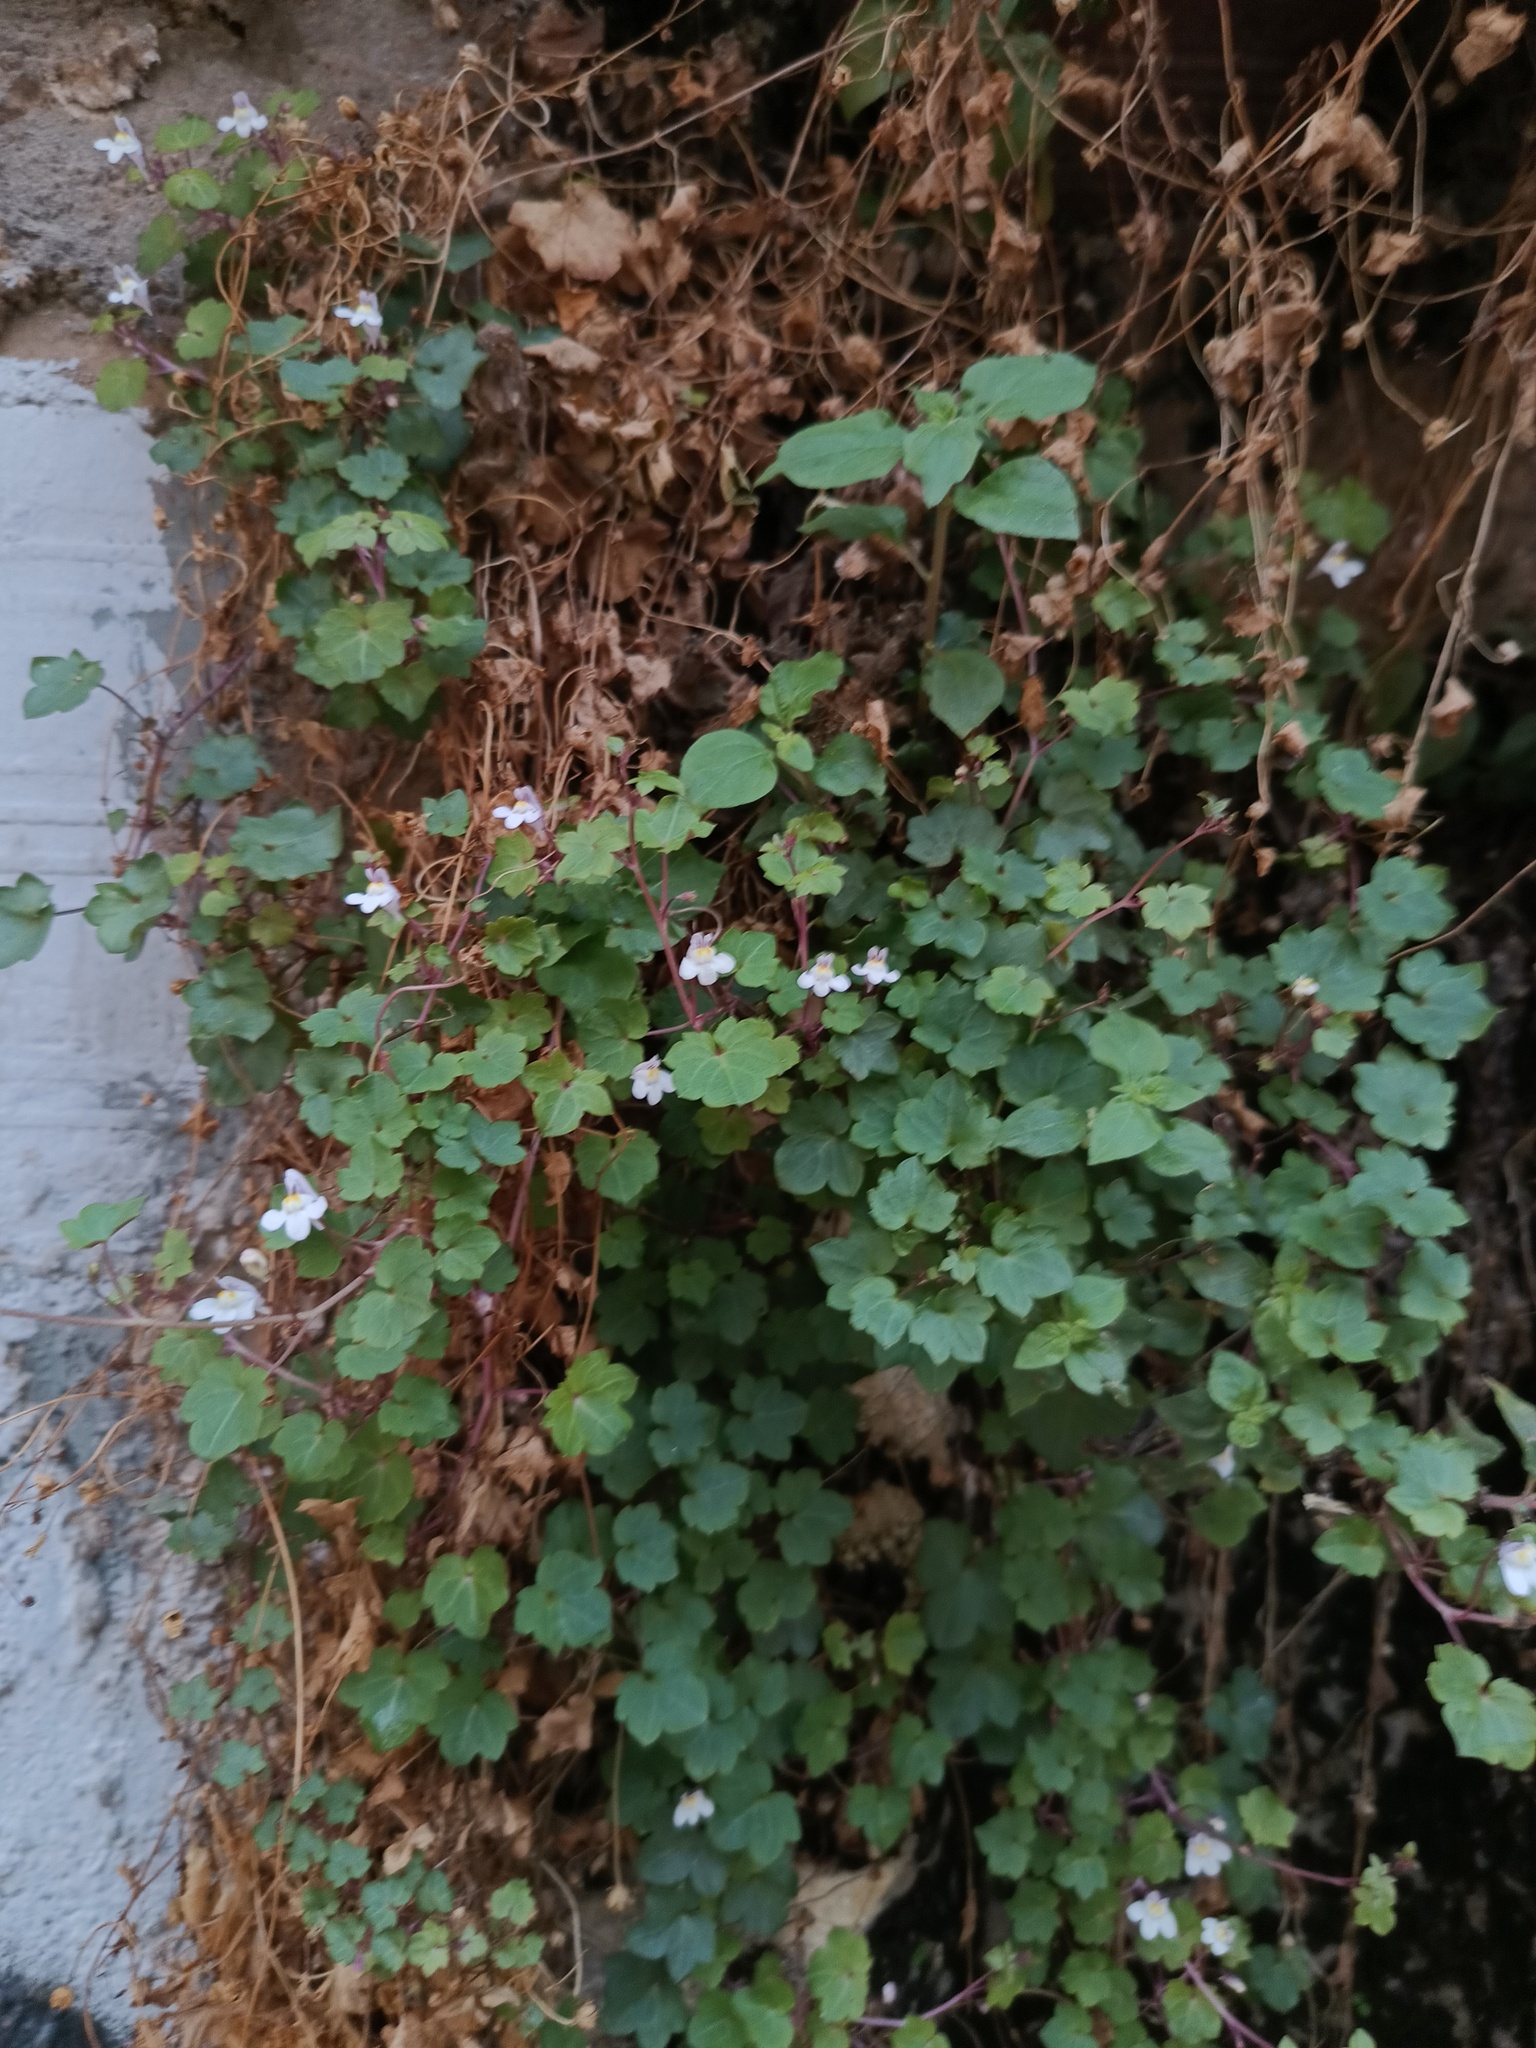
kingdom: Plantae
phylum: Tracheophyta
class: Magnoliopsida
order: Lamiales
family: Plantaginaceae
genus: Cymbalaria
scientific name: Cymbalaria muralis
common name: Ivy-leaved toadflax
